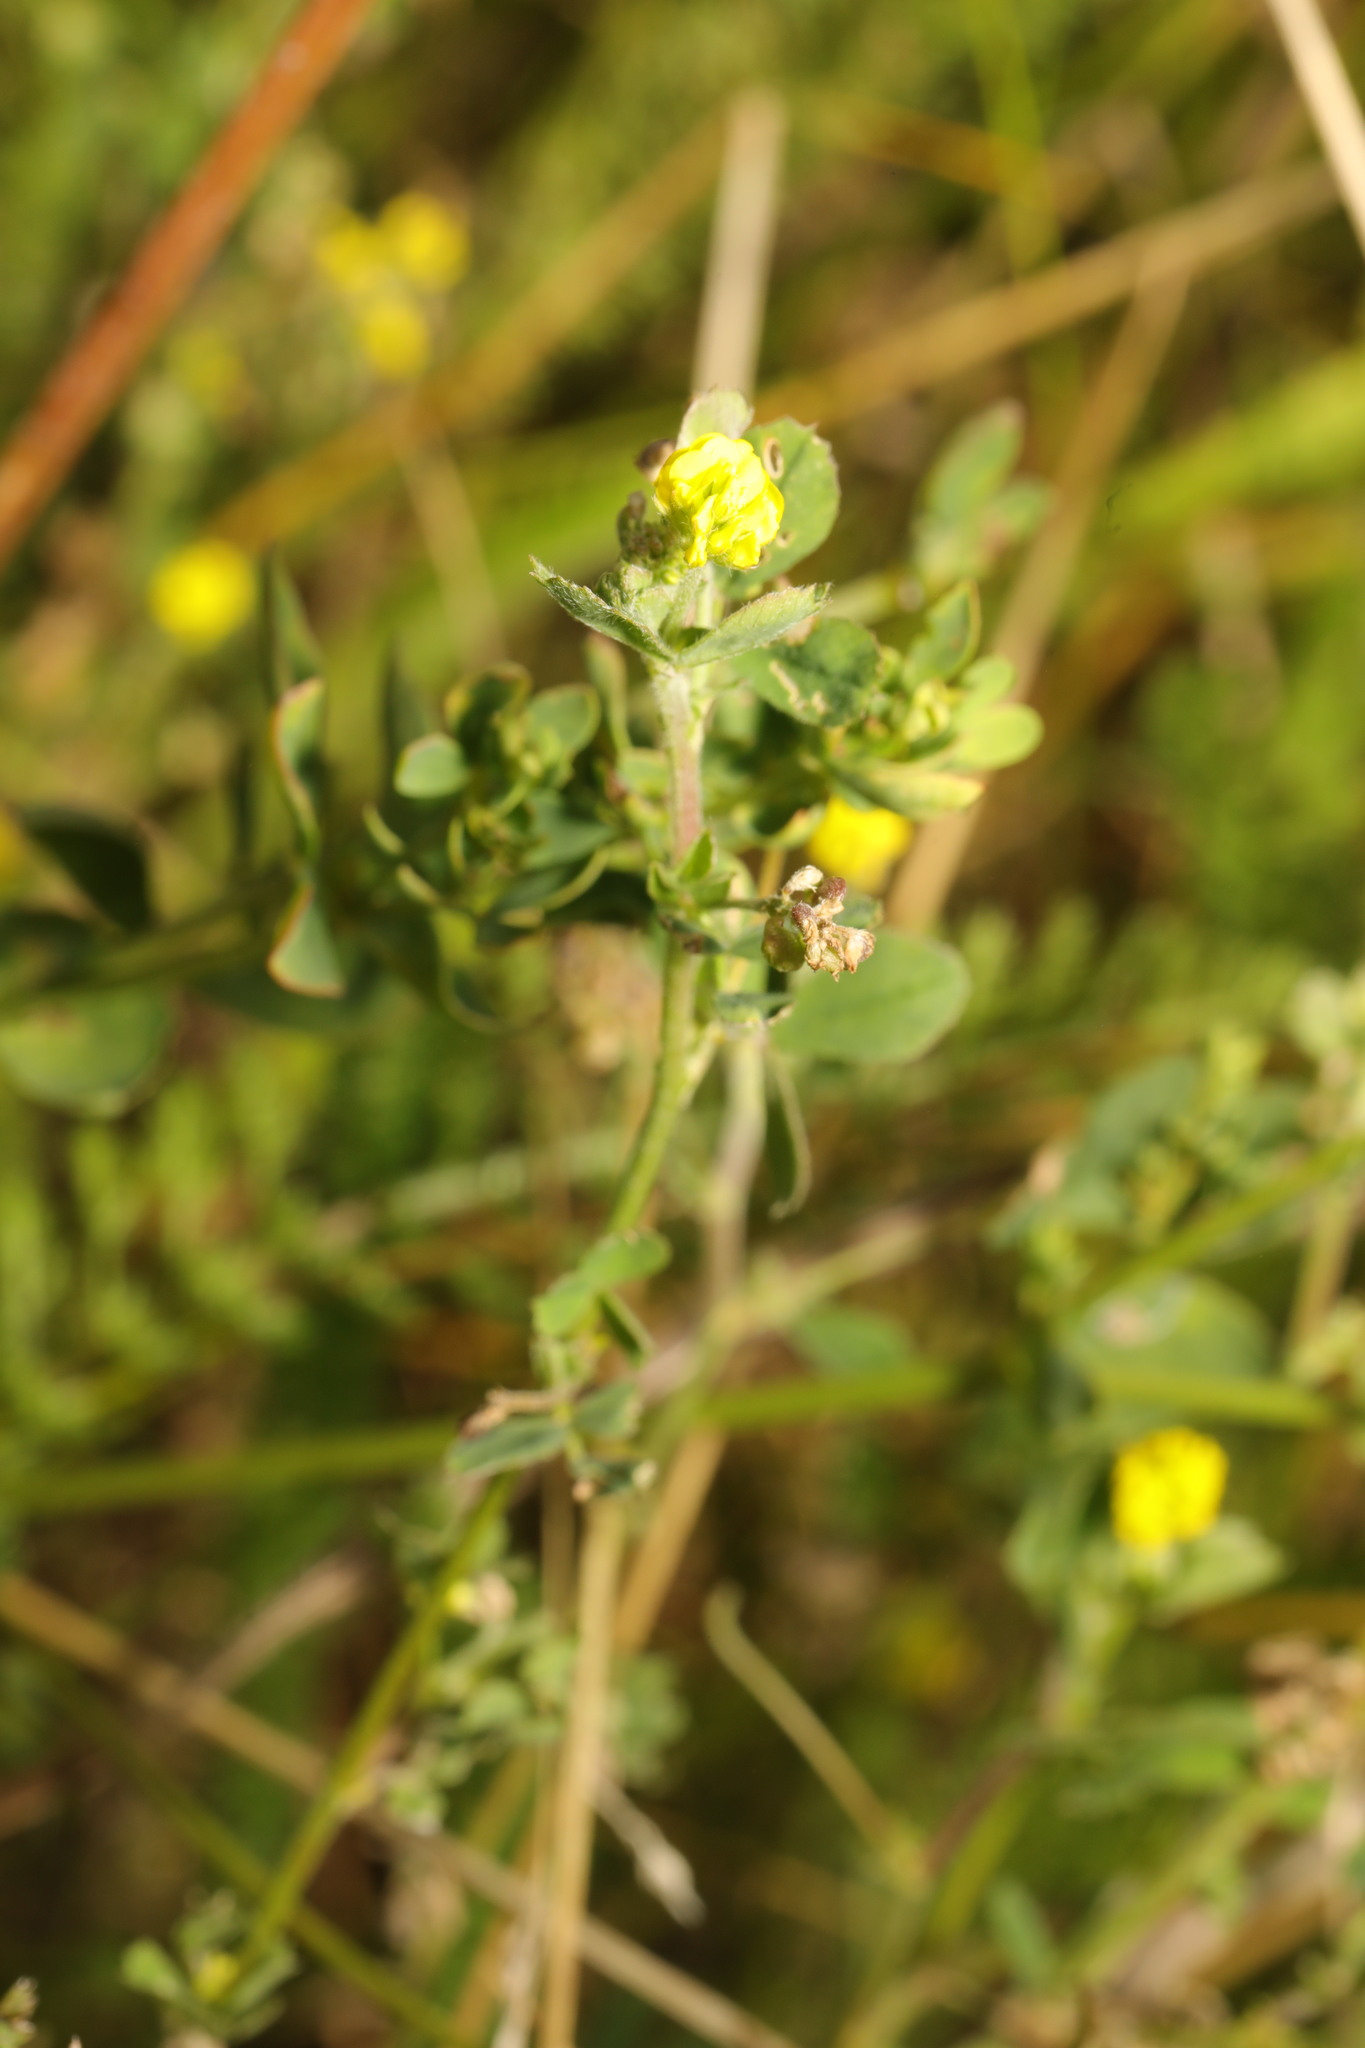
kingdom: Plantae
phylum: Tracheophyta
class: Magnoliopsida
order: Fabales
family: Fabaceae
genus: Medicago
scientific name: Medicago lupulina
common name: Black medick
